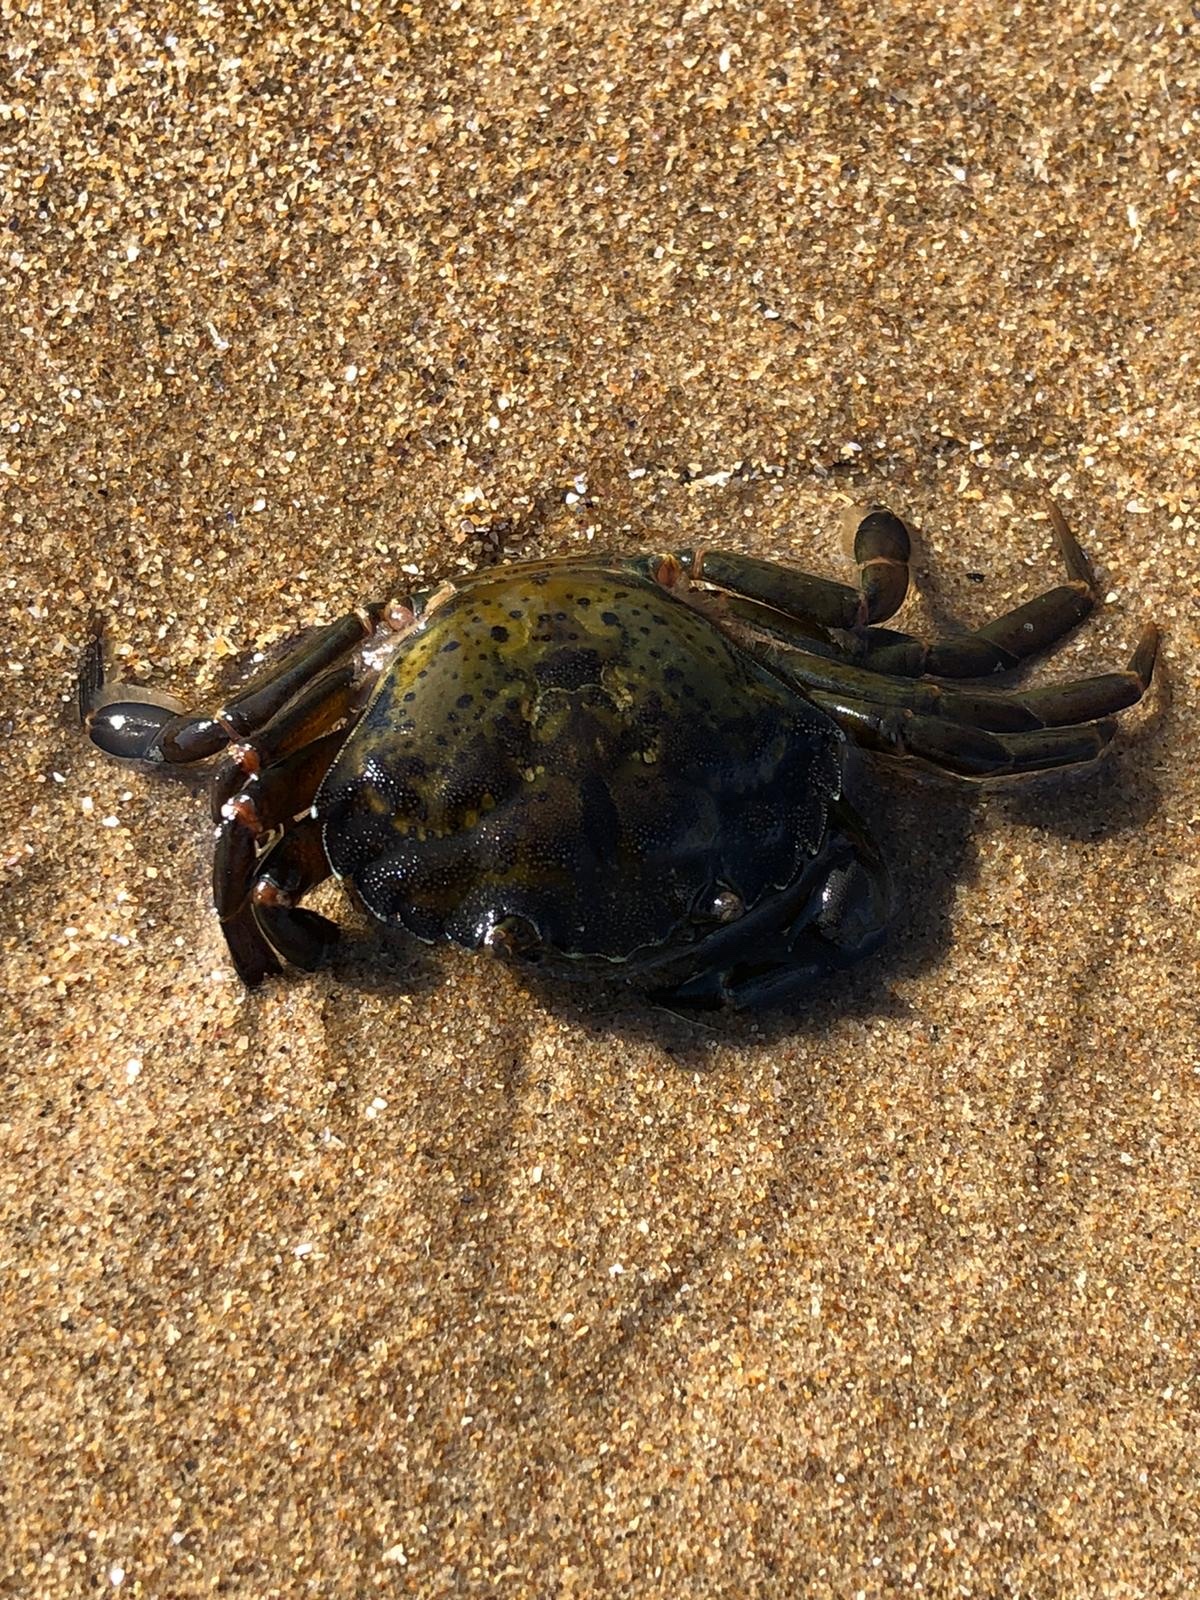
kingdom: Animalia
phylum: Arthropoda
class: Malacostraca
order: Decapoda
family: Carcinidae
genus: Carcinus
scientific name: Carcinus maenas
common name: European green crab
